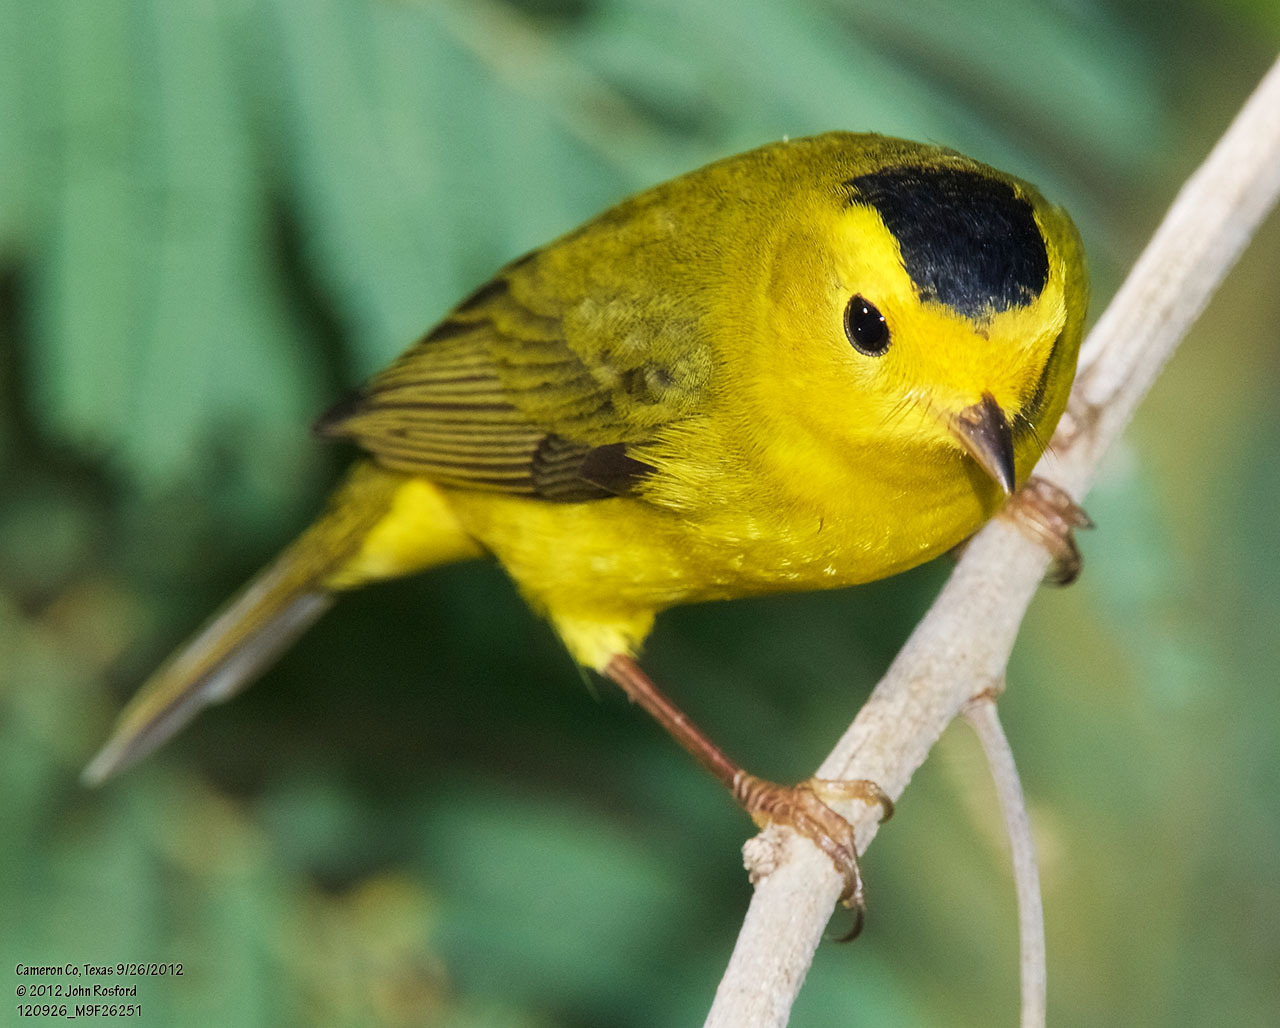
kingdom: Animalia
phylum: Chordata
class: Aves
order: Passeriformes
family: Parulidae
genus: Cardellina
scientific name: Cardellina pusilla
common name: Wilson's warbler
